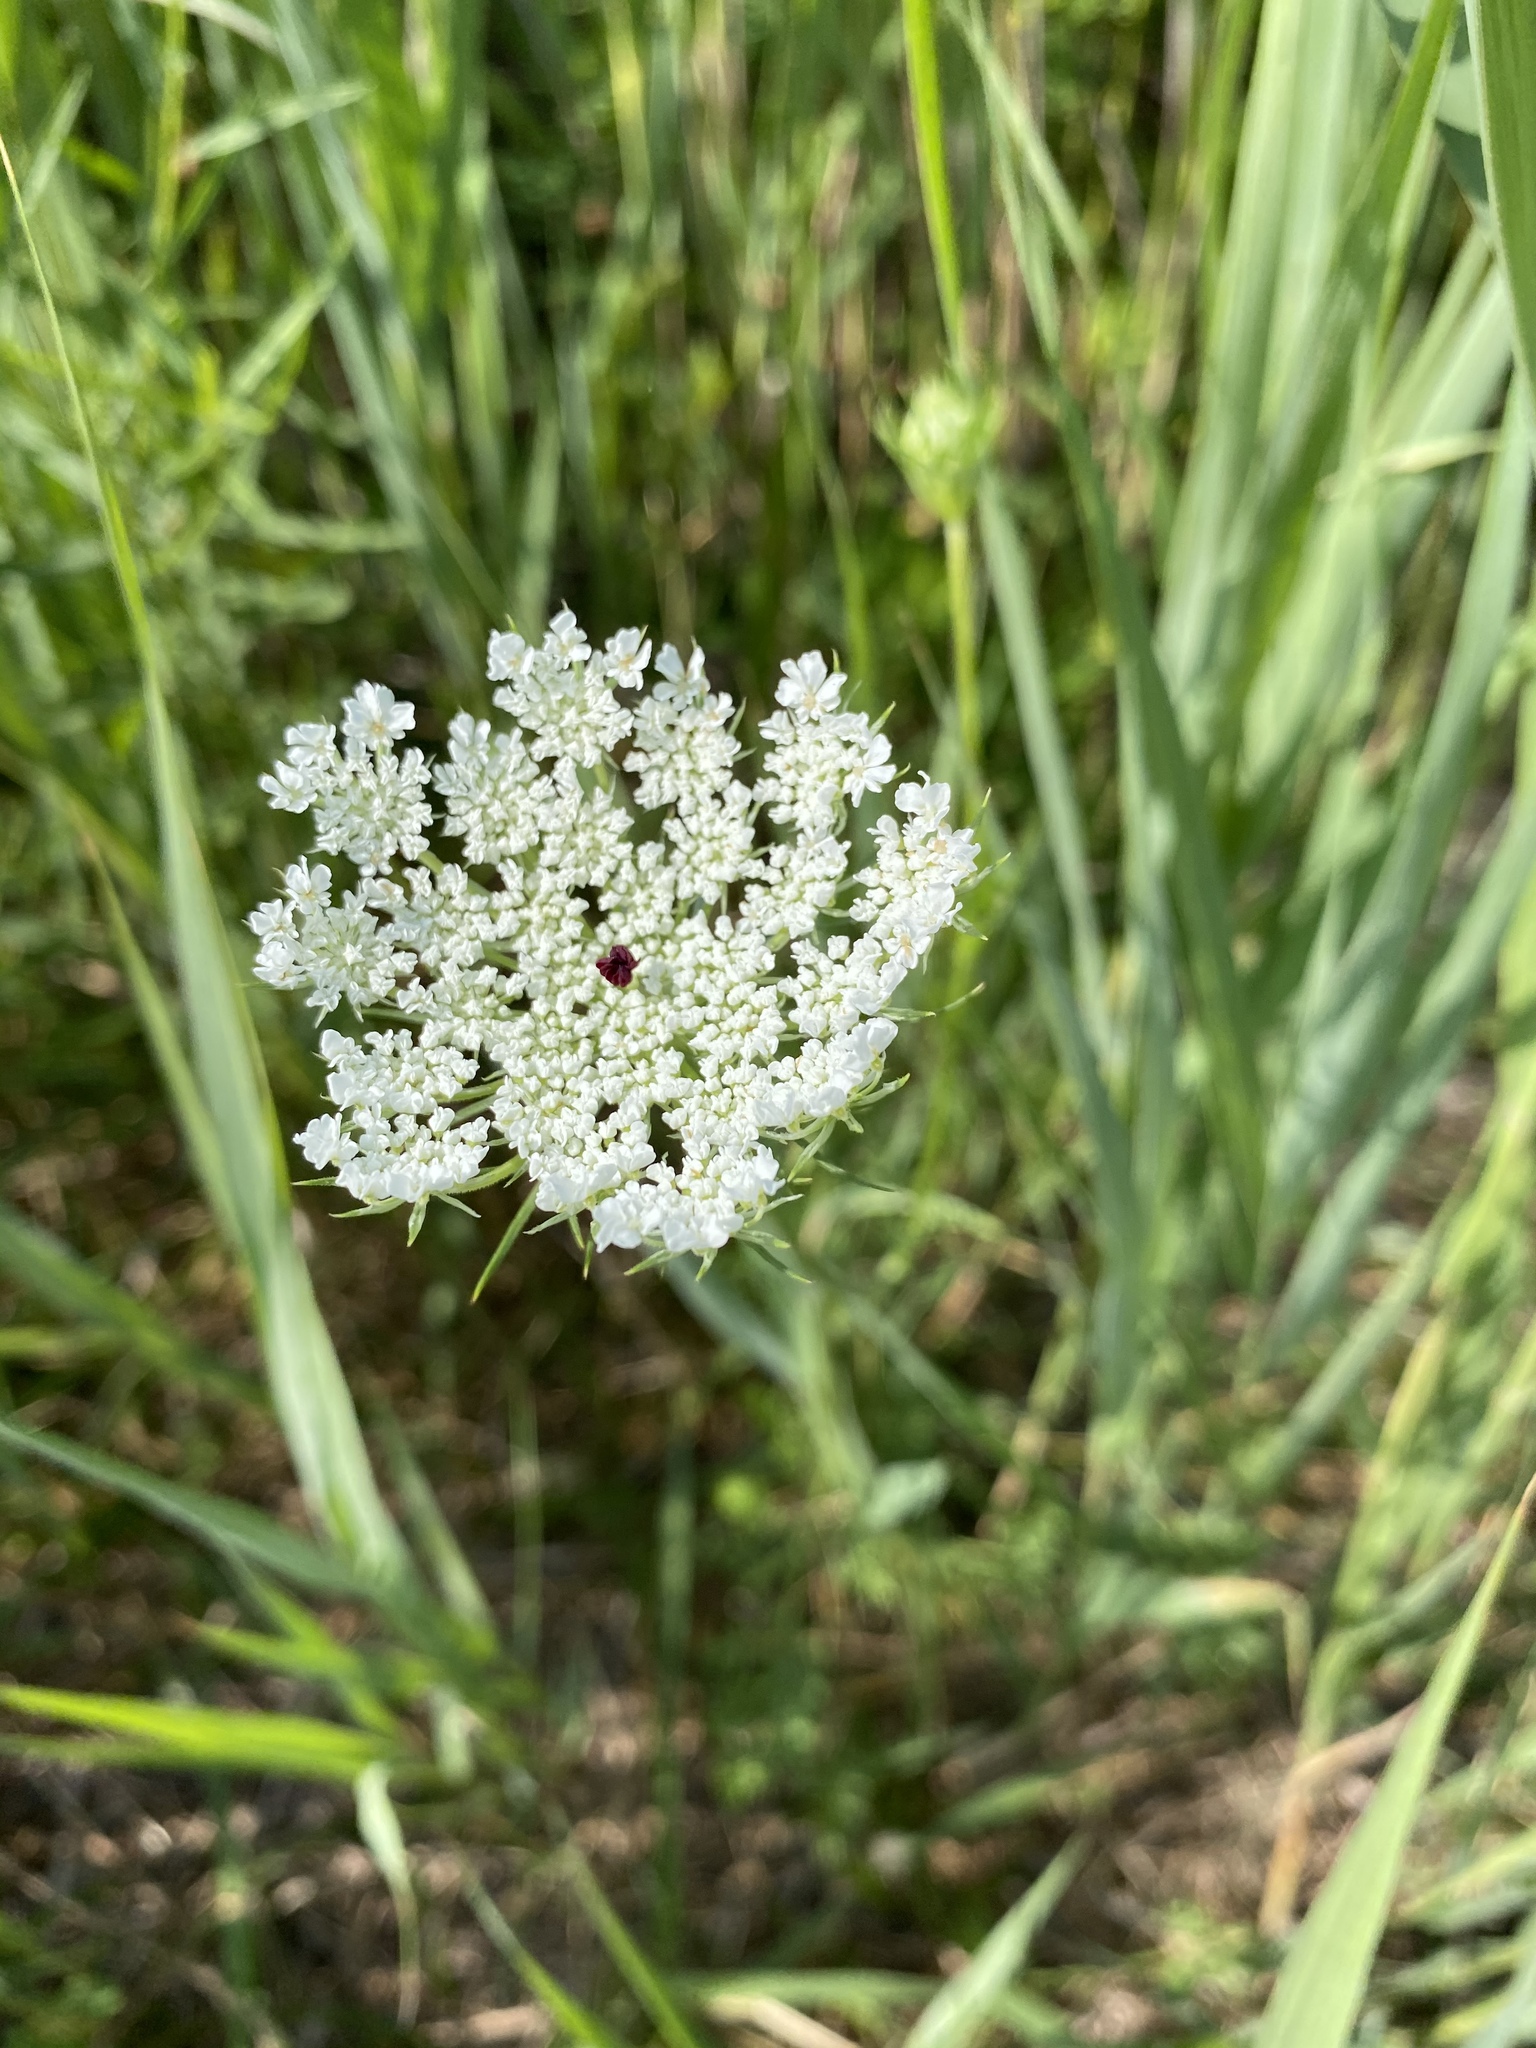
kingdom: Plantae
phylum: Tracheophyta
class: Magnoliopsida
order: Apiales
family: Apiaceae
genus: Daucus
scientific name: Daucus carota
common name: Wild carrot
